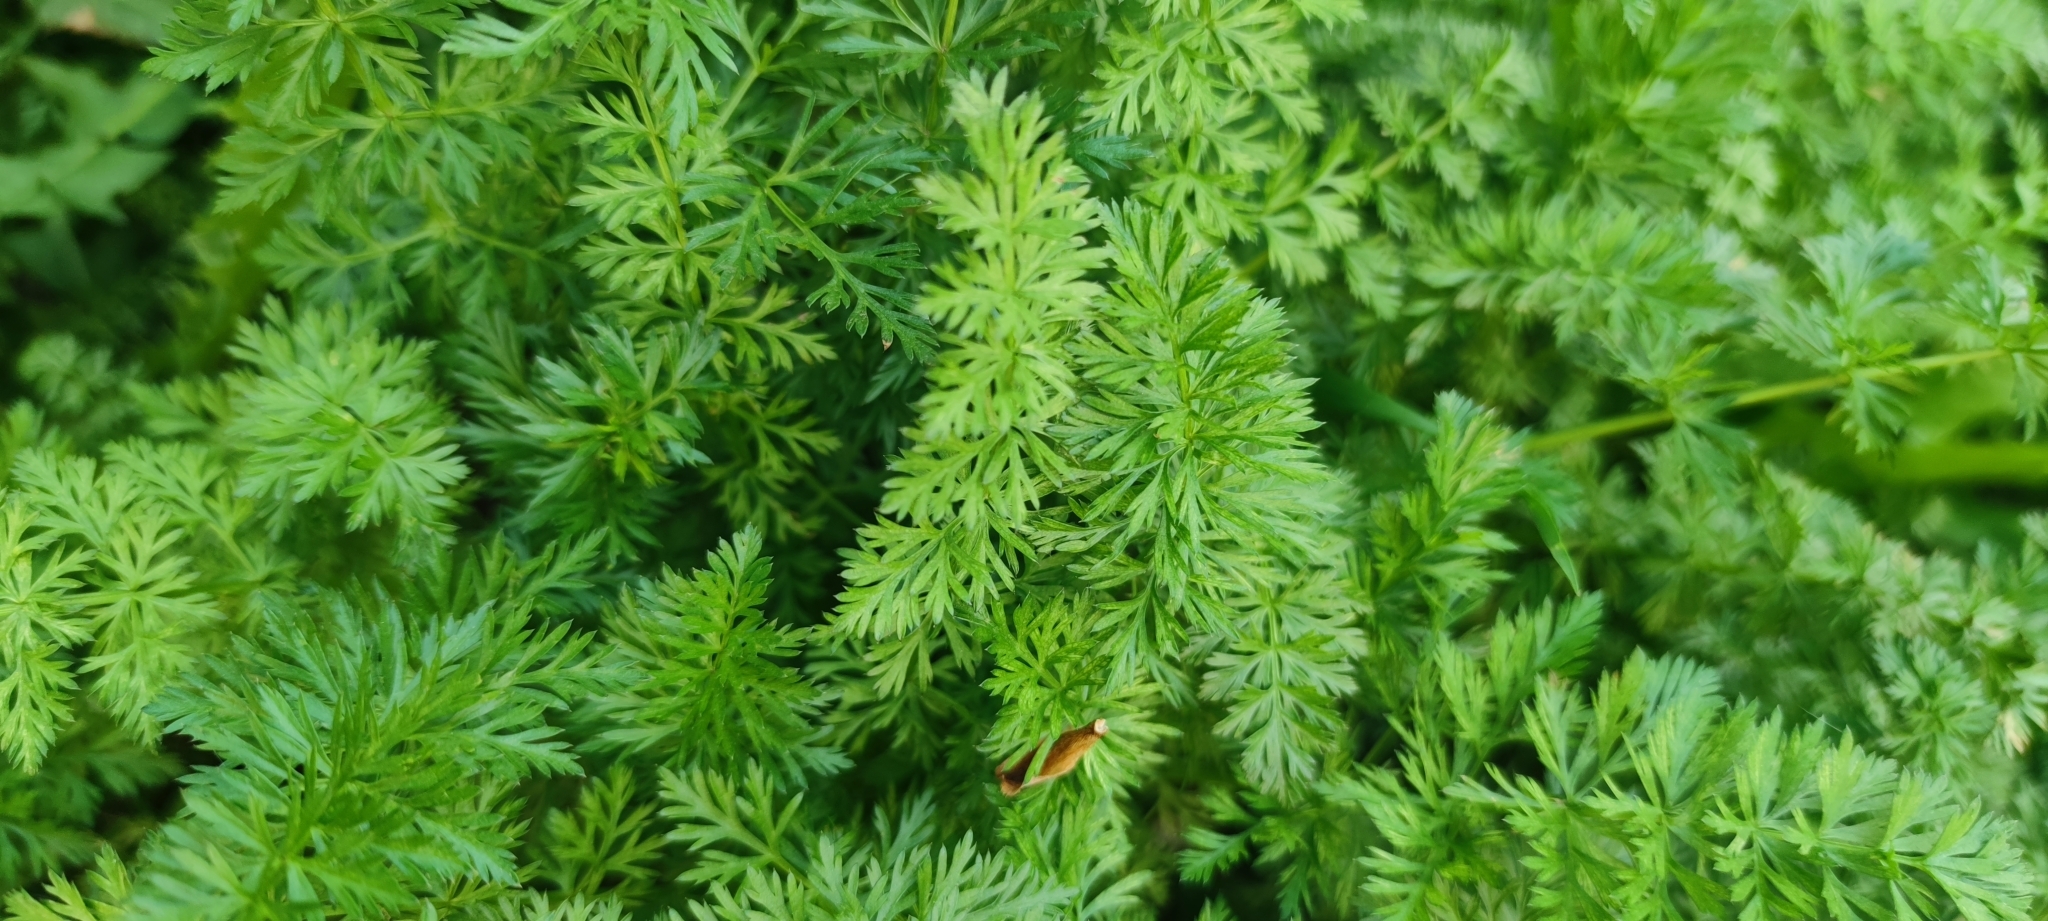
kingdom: Plantae
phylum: Tracheophyta
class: Magnoliopsida
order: Apiales
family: Apiaceae
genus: Carum
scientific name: Carum carvi
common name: Caraway
